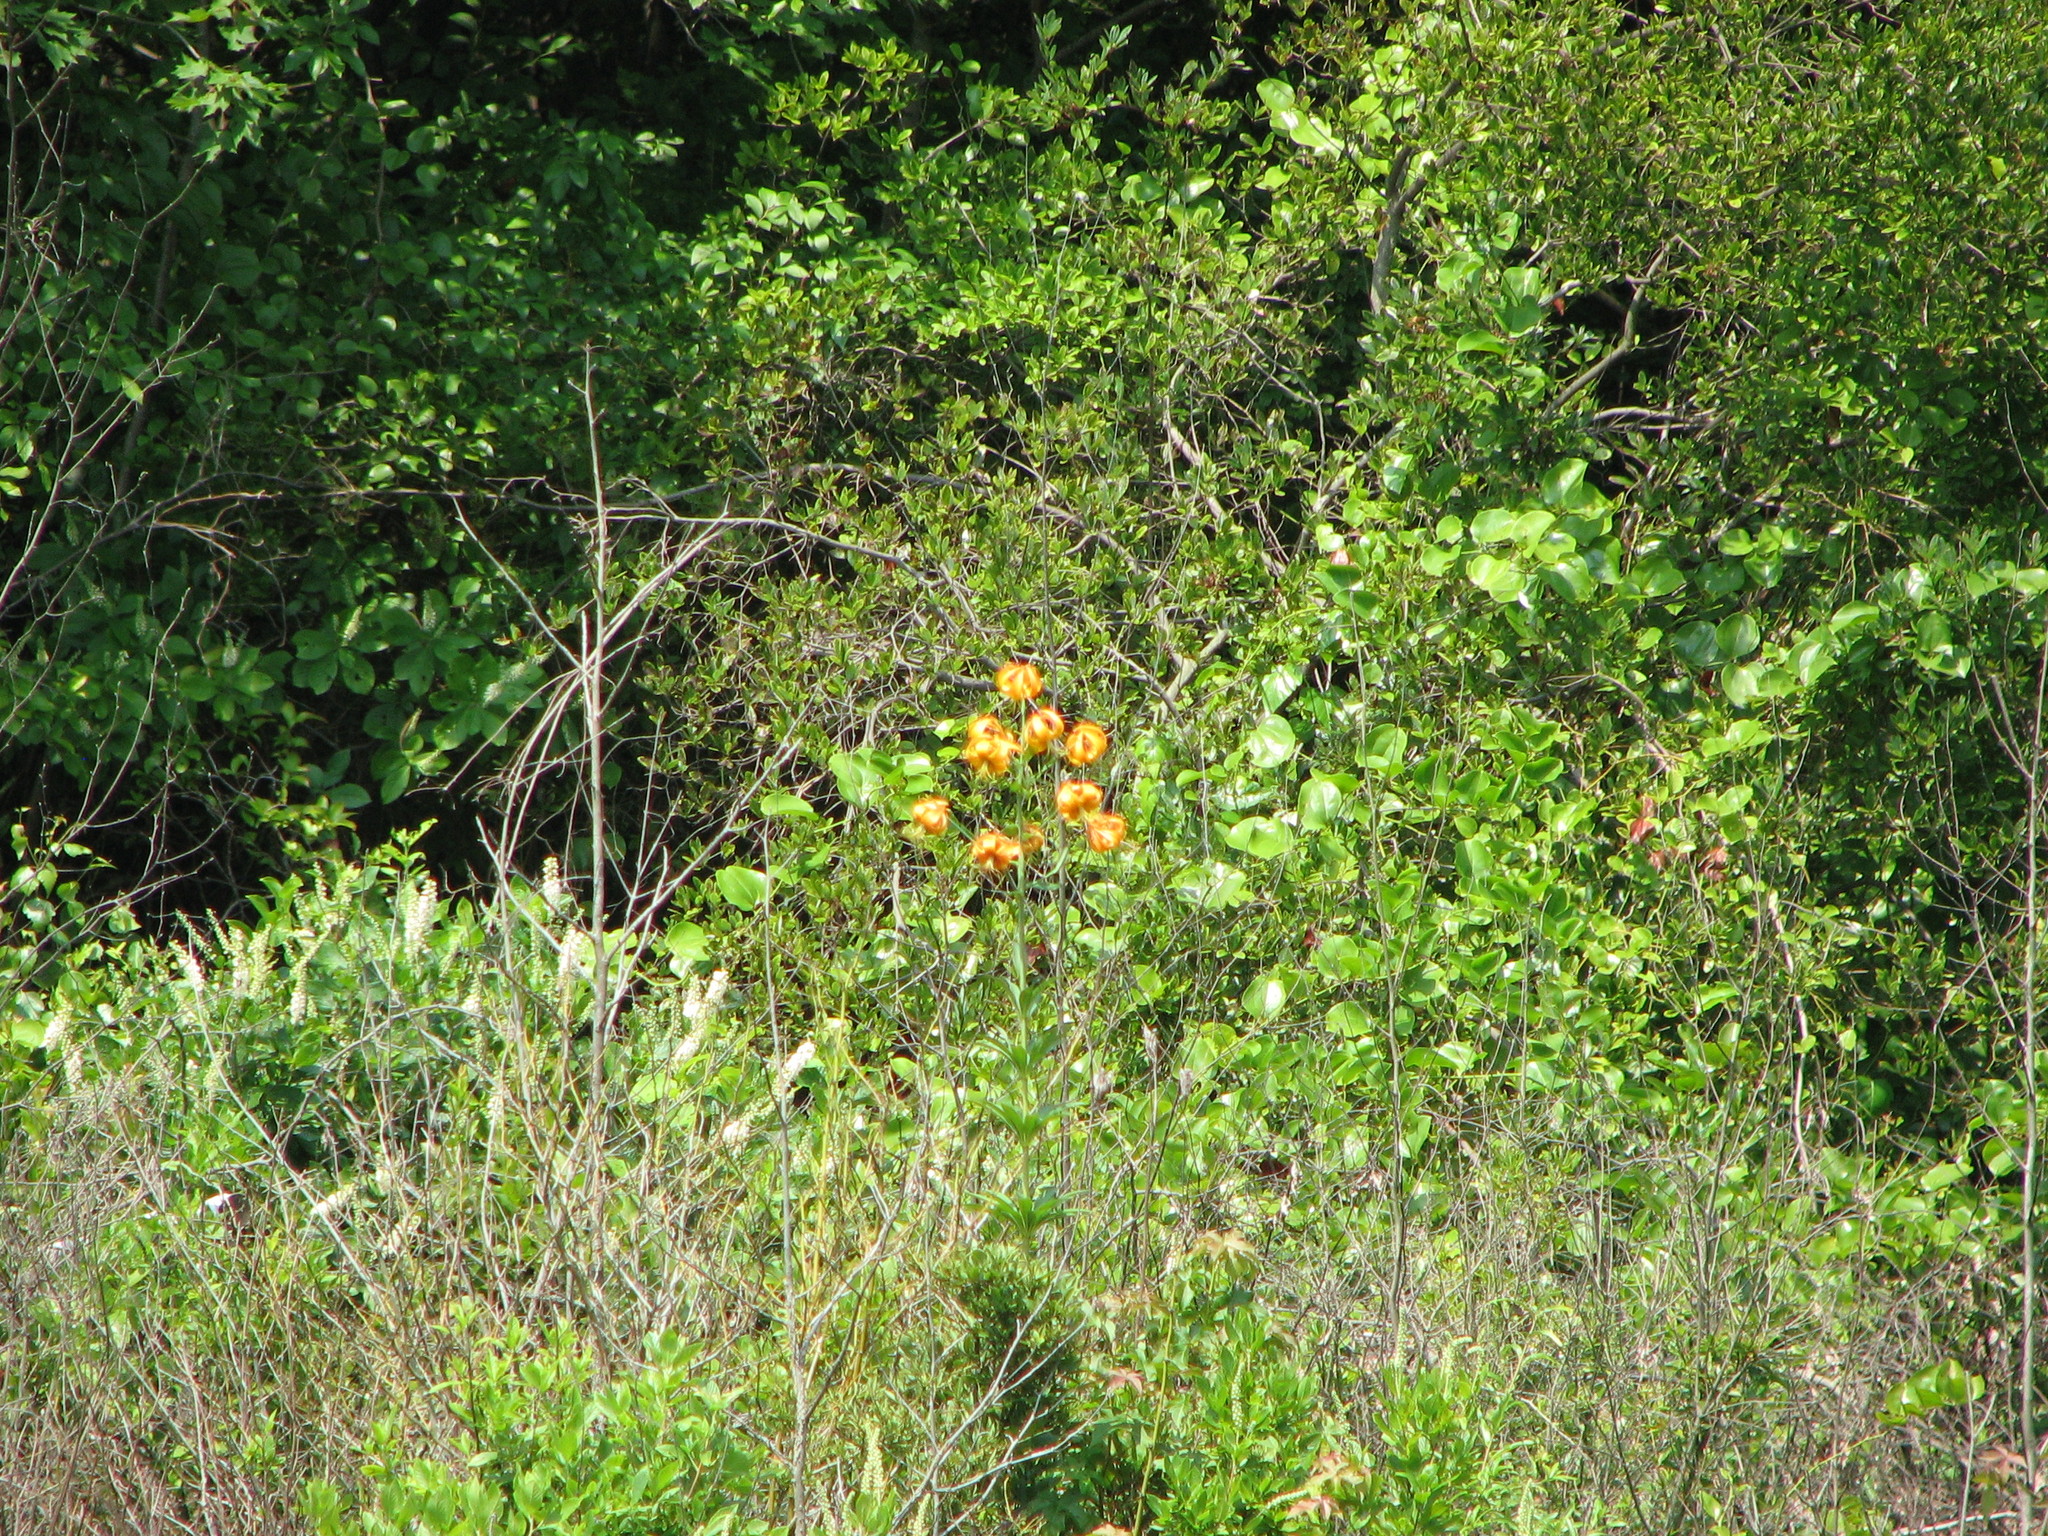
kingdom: Plantae
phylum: Tracheophyta
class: Liliopsida
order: Liliales
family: Liliaceae
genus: Lilium
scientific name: Lilium superbum
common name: American turk's-cap lily
